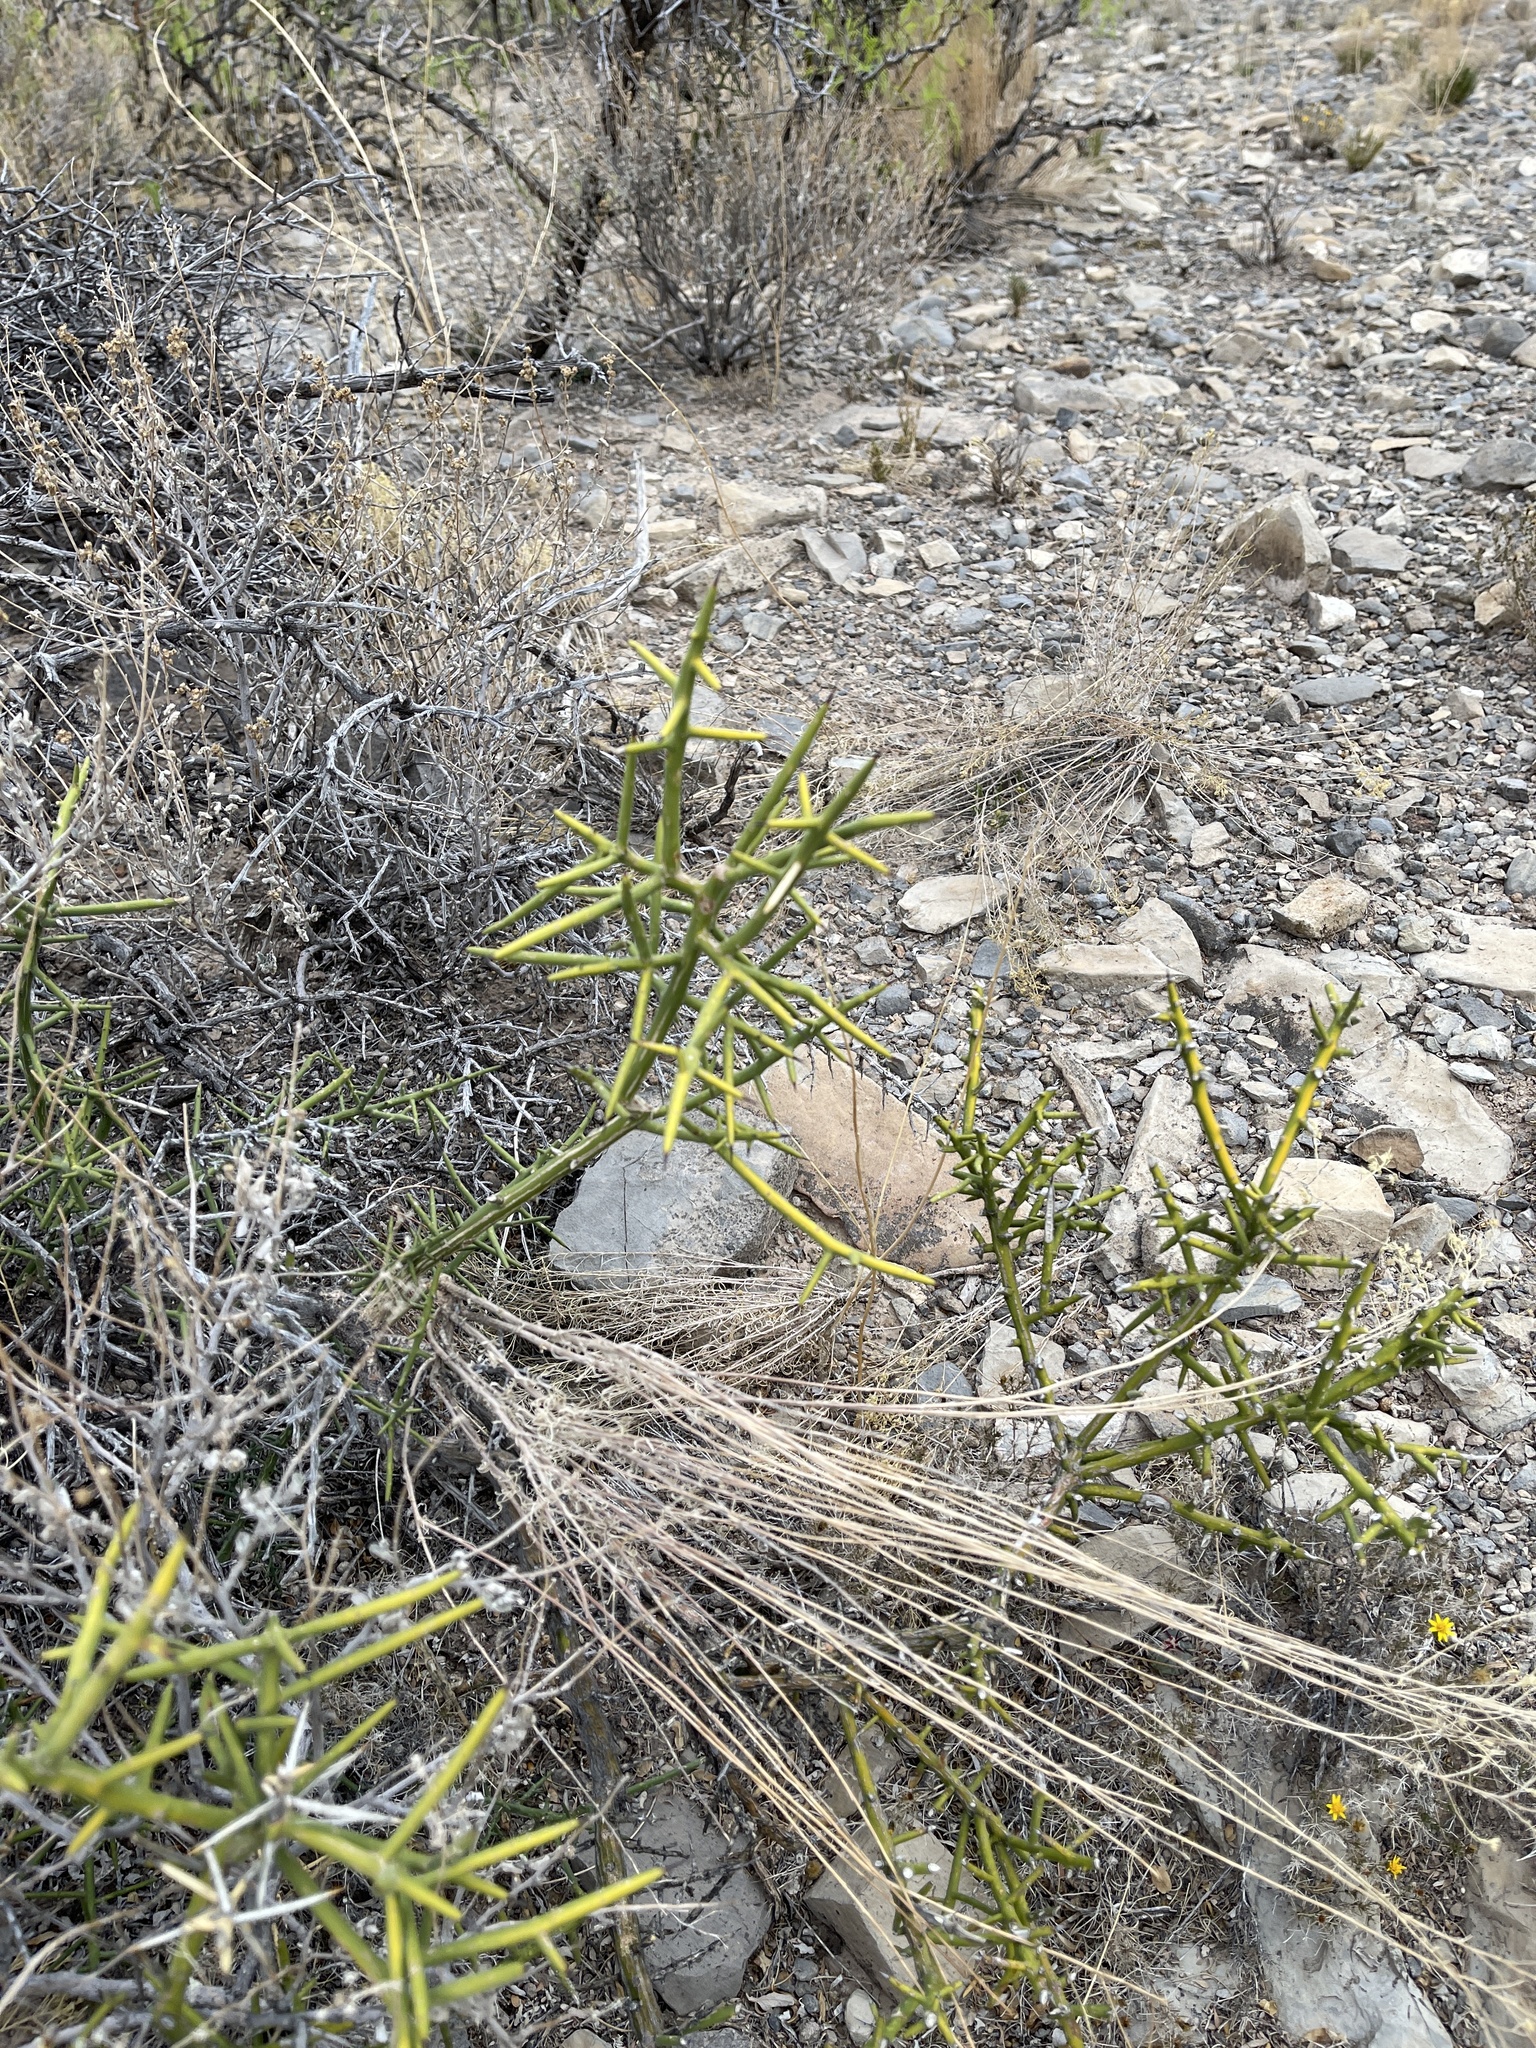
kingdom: Plantae
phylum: Tracheophyta
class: Magnoliopsida
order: Brassicales
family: Koeberliniaceae
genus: Koeberlinia
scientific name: Koeberlinia spinosa
